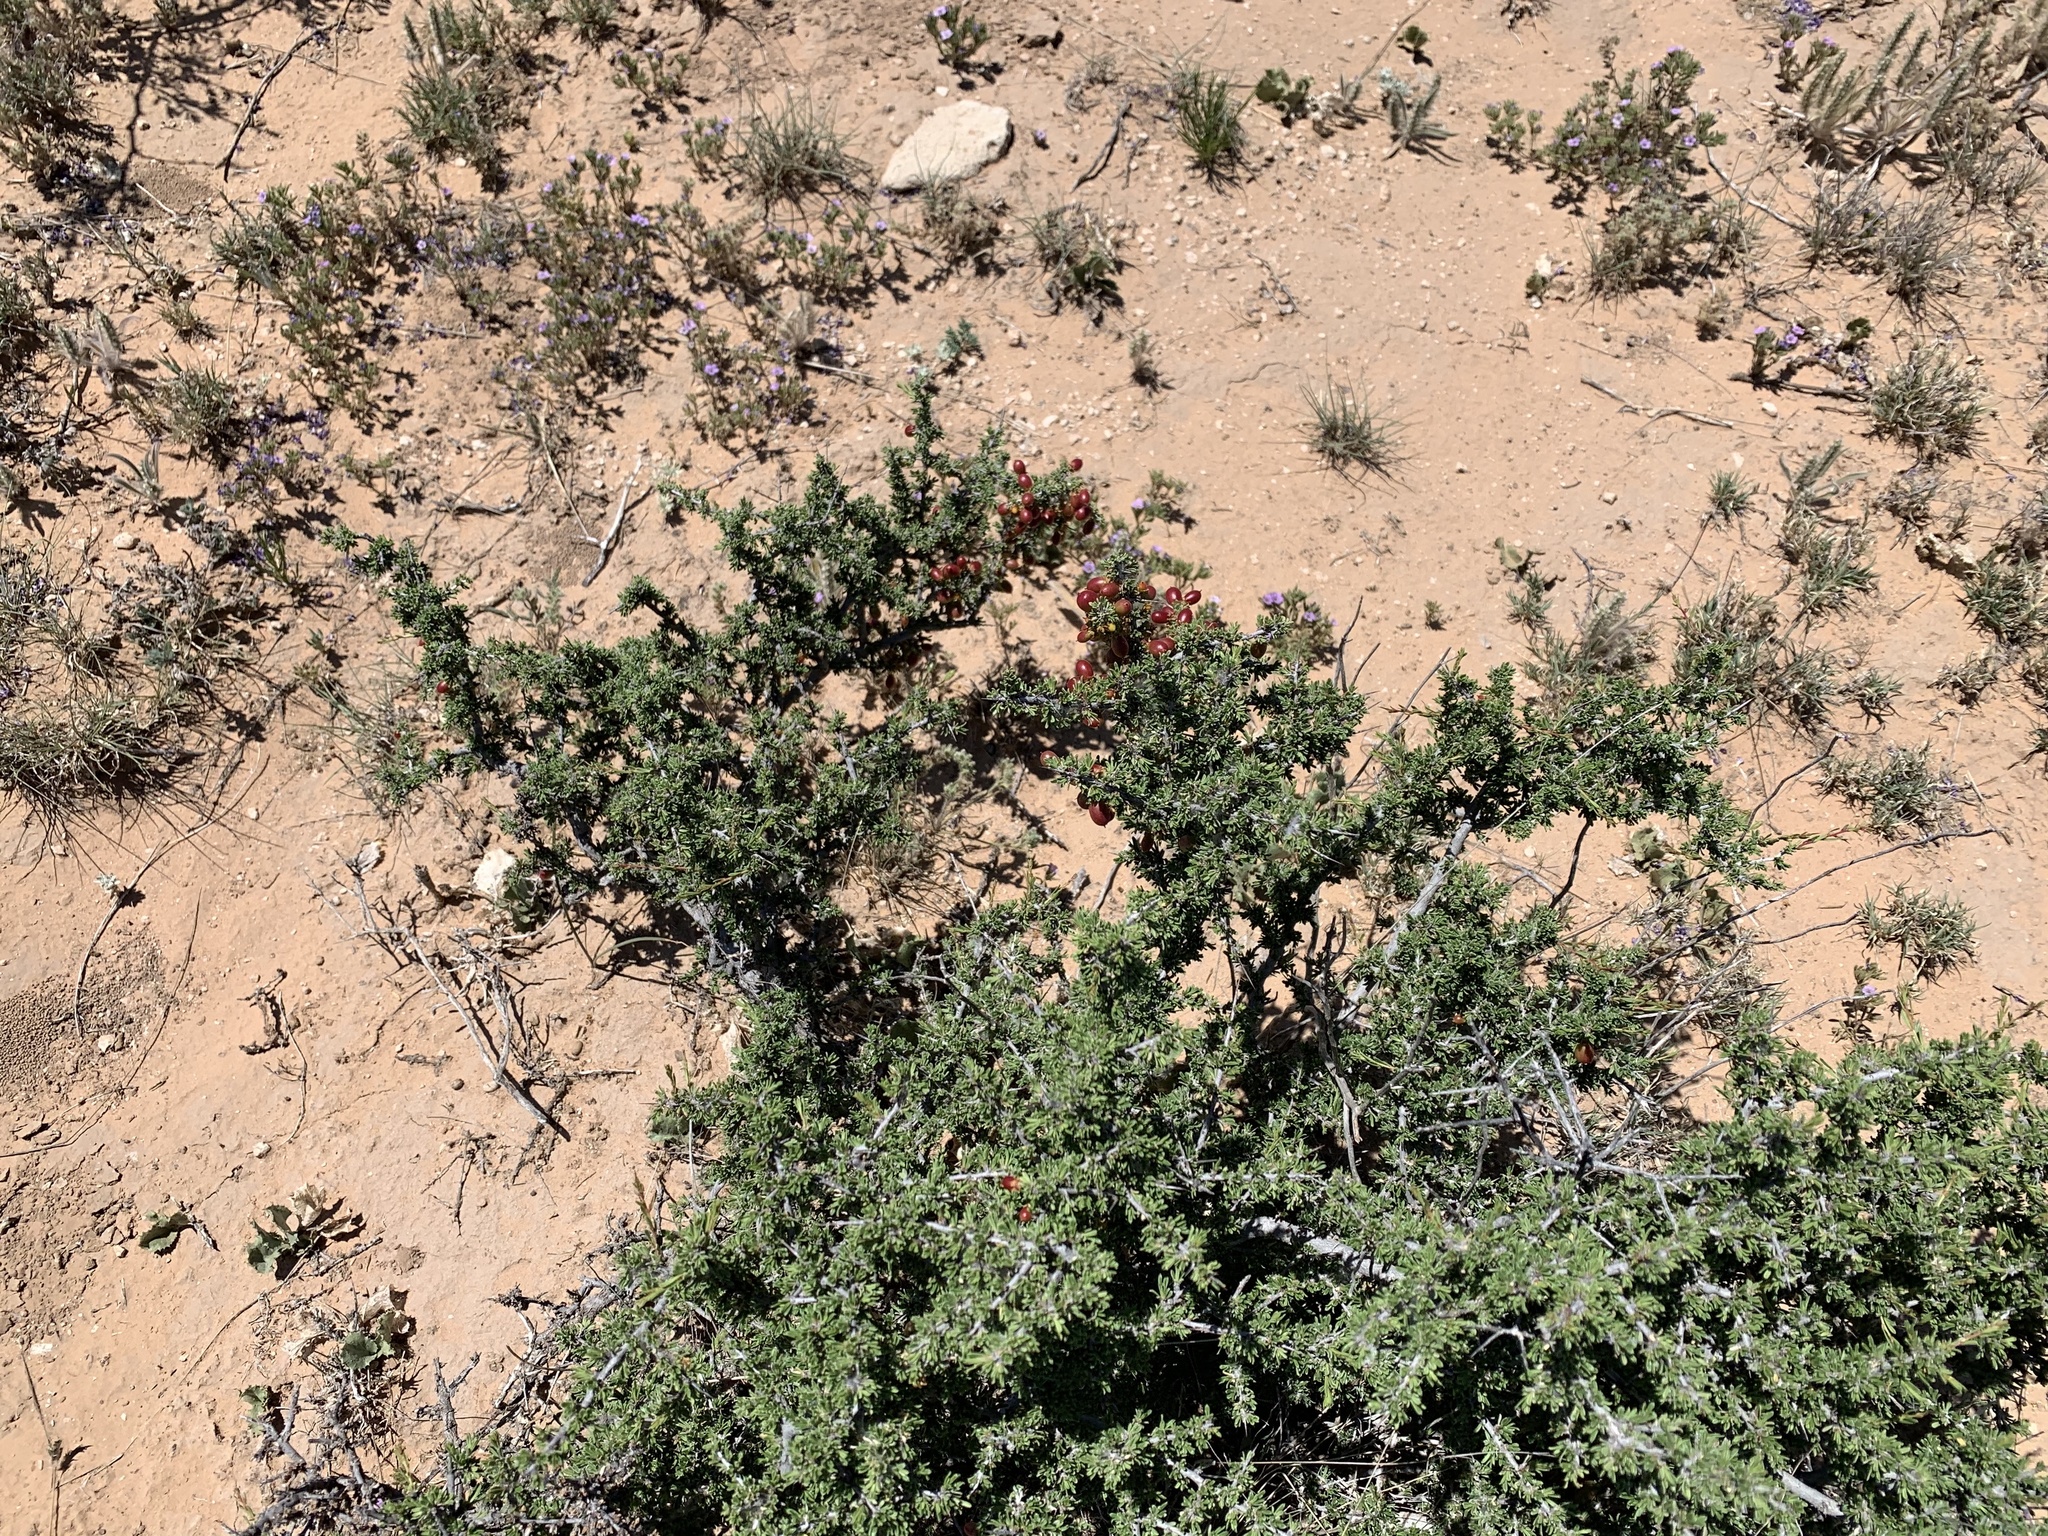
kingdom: Plantae
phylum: Tracheophyta
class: Magnoliopsida
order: Rosales
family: Rhamnaceae
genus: Condalia
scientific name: Condalia ericoides
